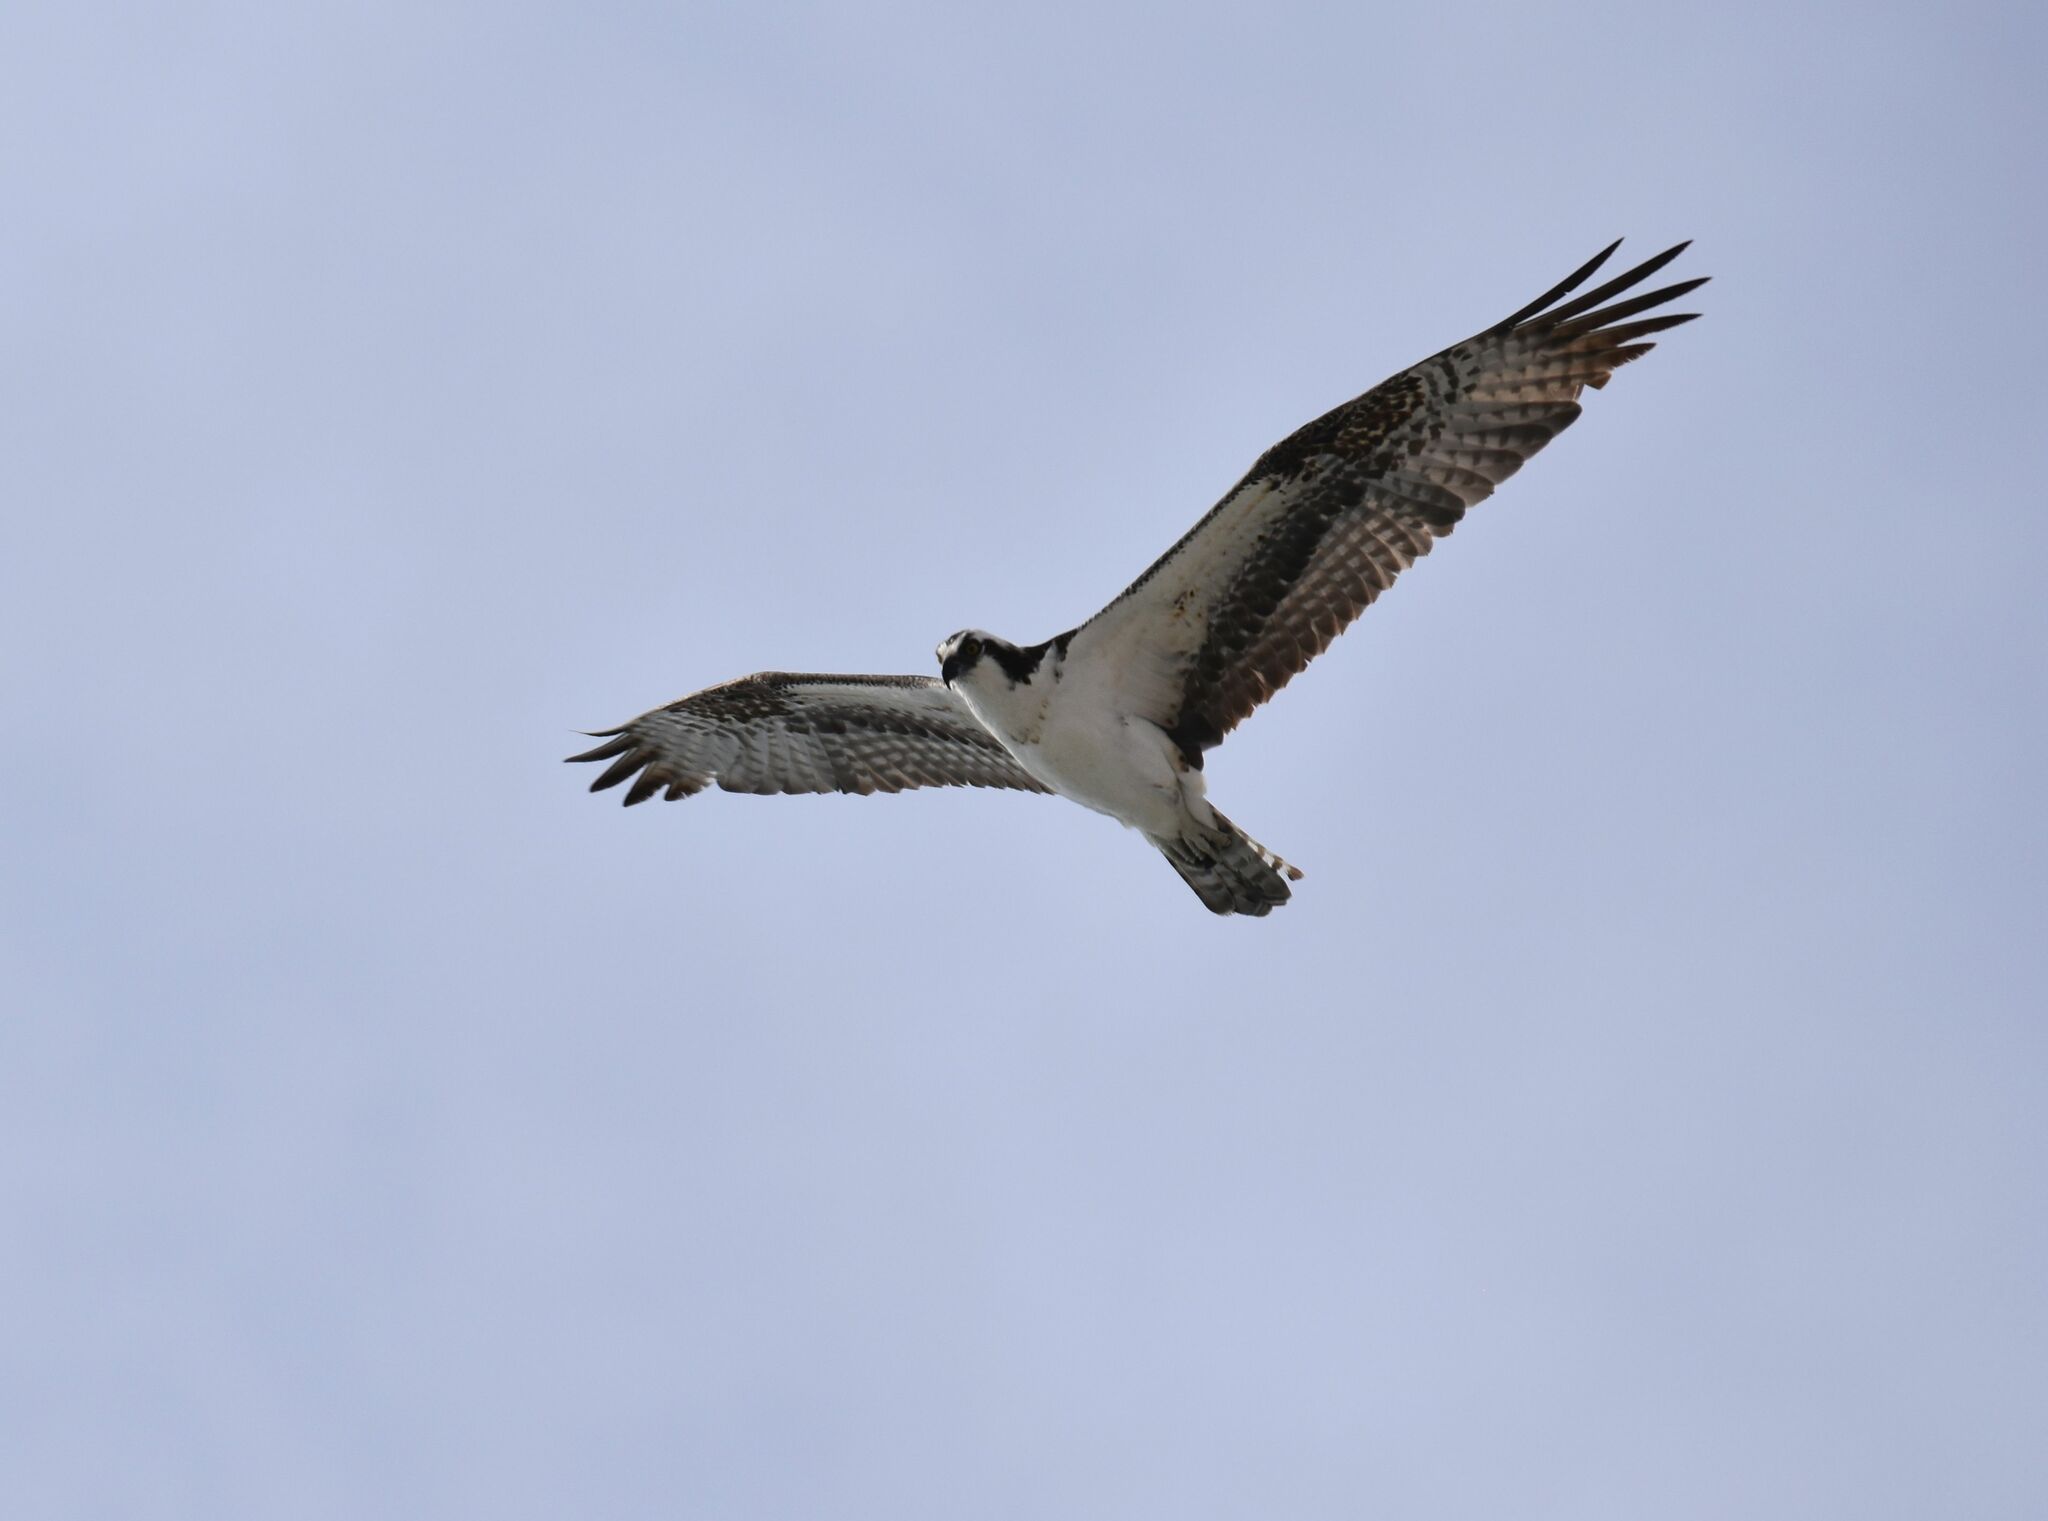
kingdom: Animalia
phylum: Chordata
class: Aves
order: Accipitriformes
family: Pandionidae
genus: Pandion
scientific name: Pandion haliaetus
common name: Osprey
